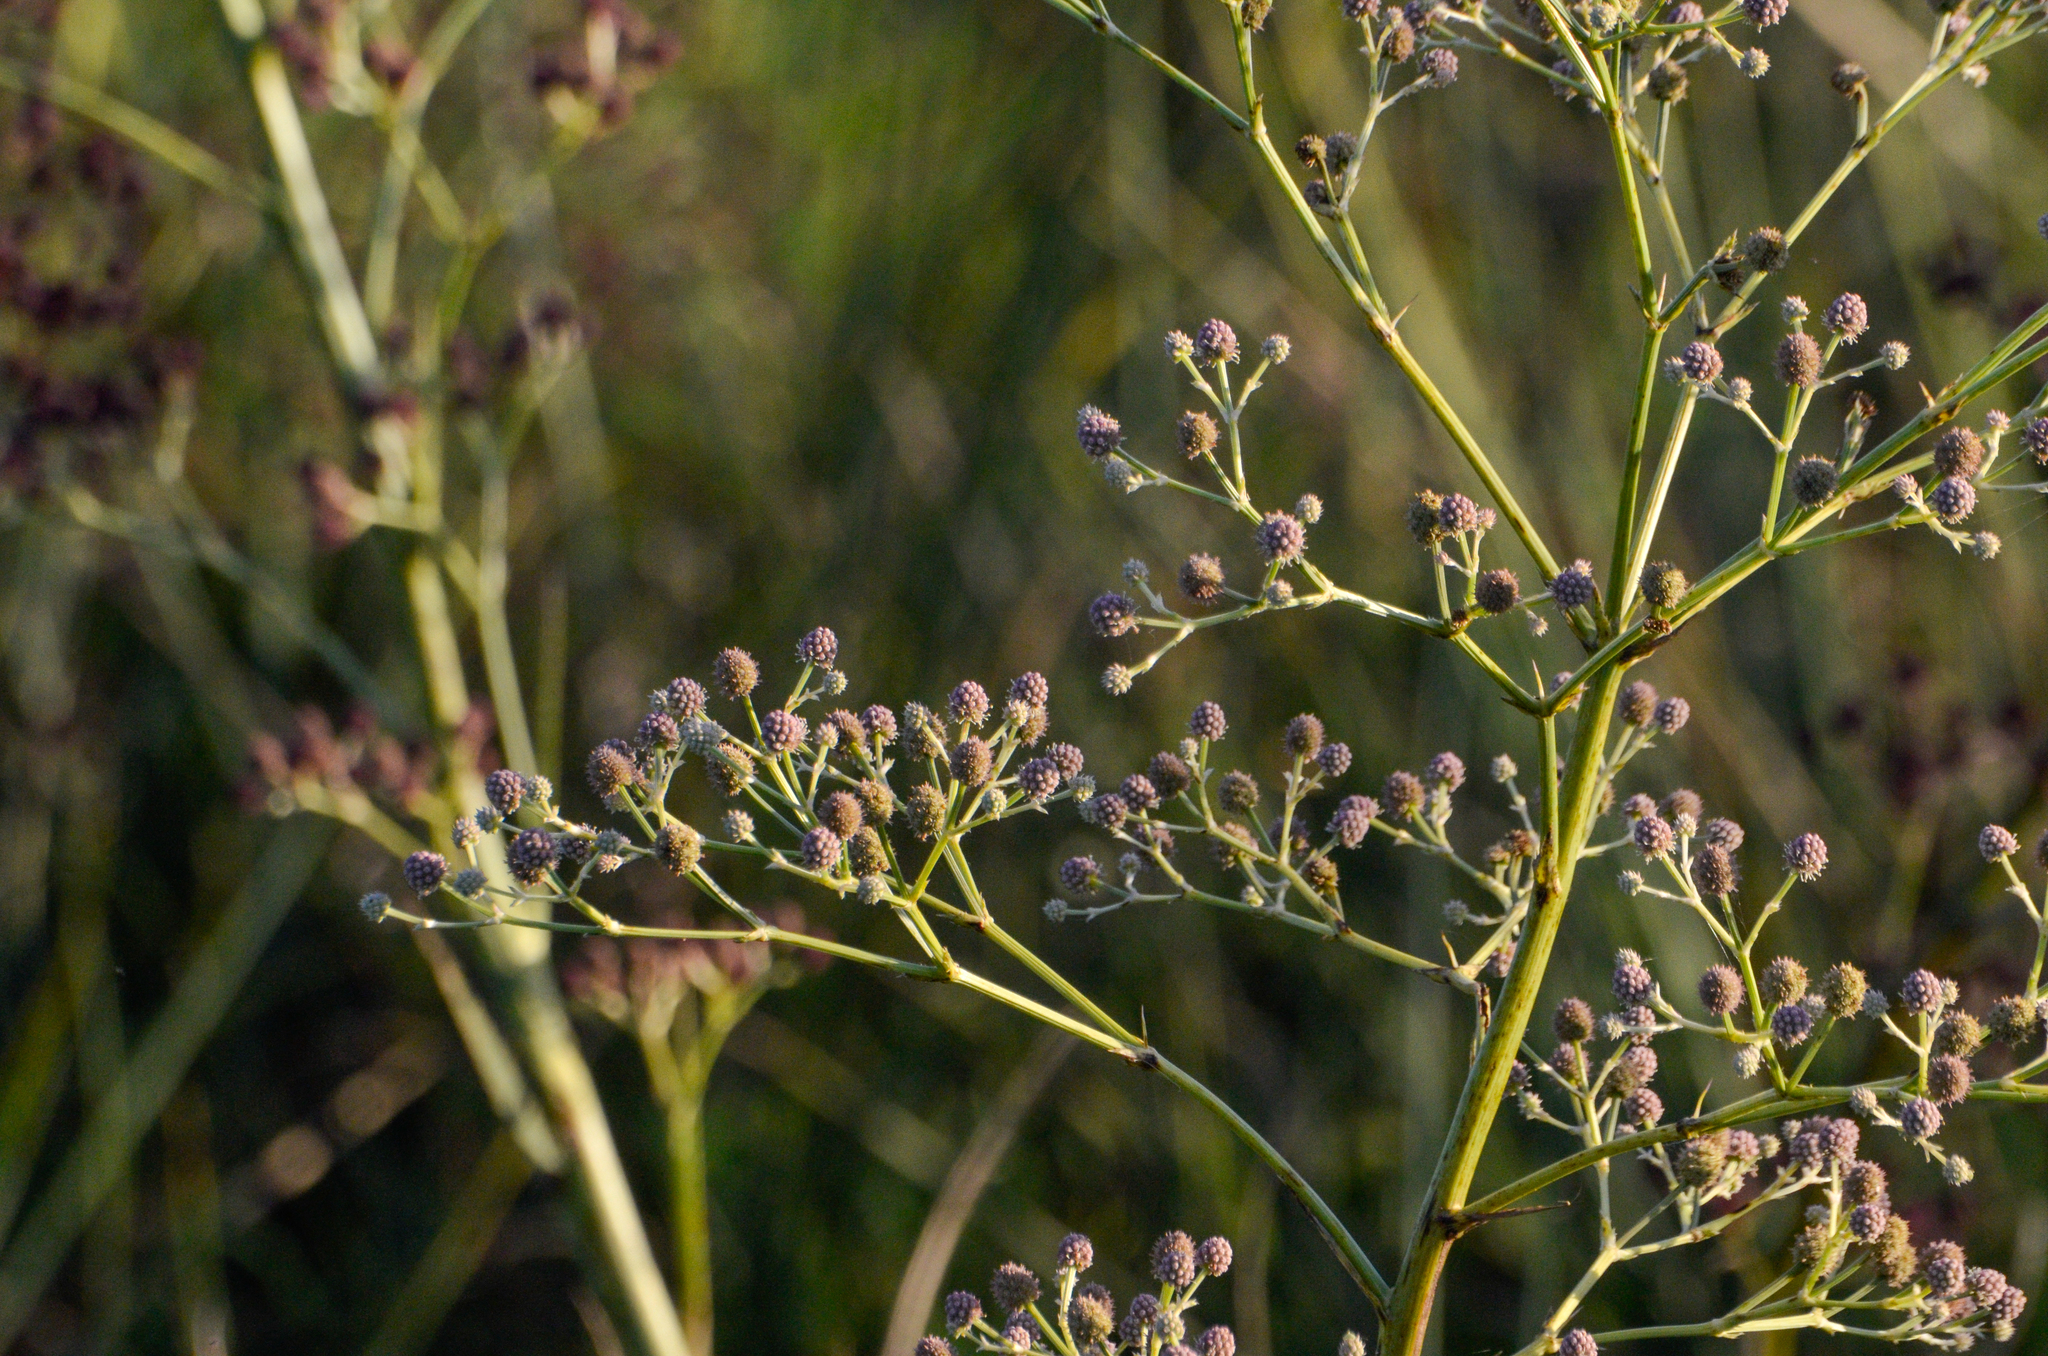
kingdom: Plantae
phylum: Tracheophyta
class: Magnoliopsida
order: Apiales
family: Apiaceae
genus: Eryngium
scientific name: Eryngium pandanifolium
